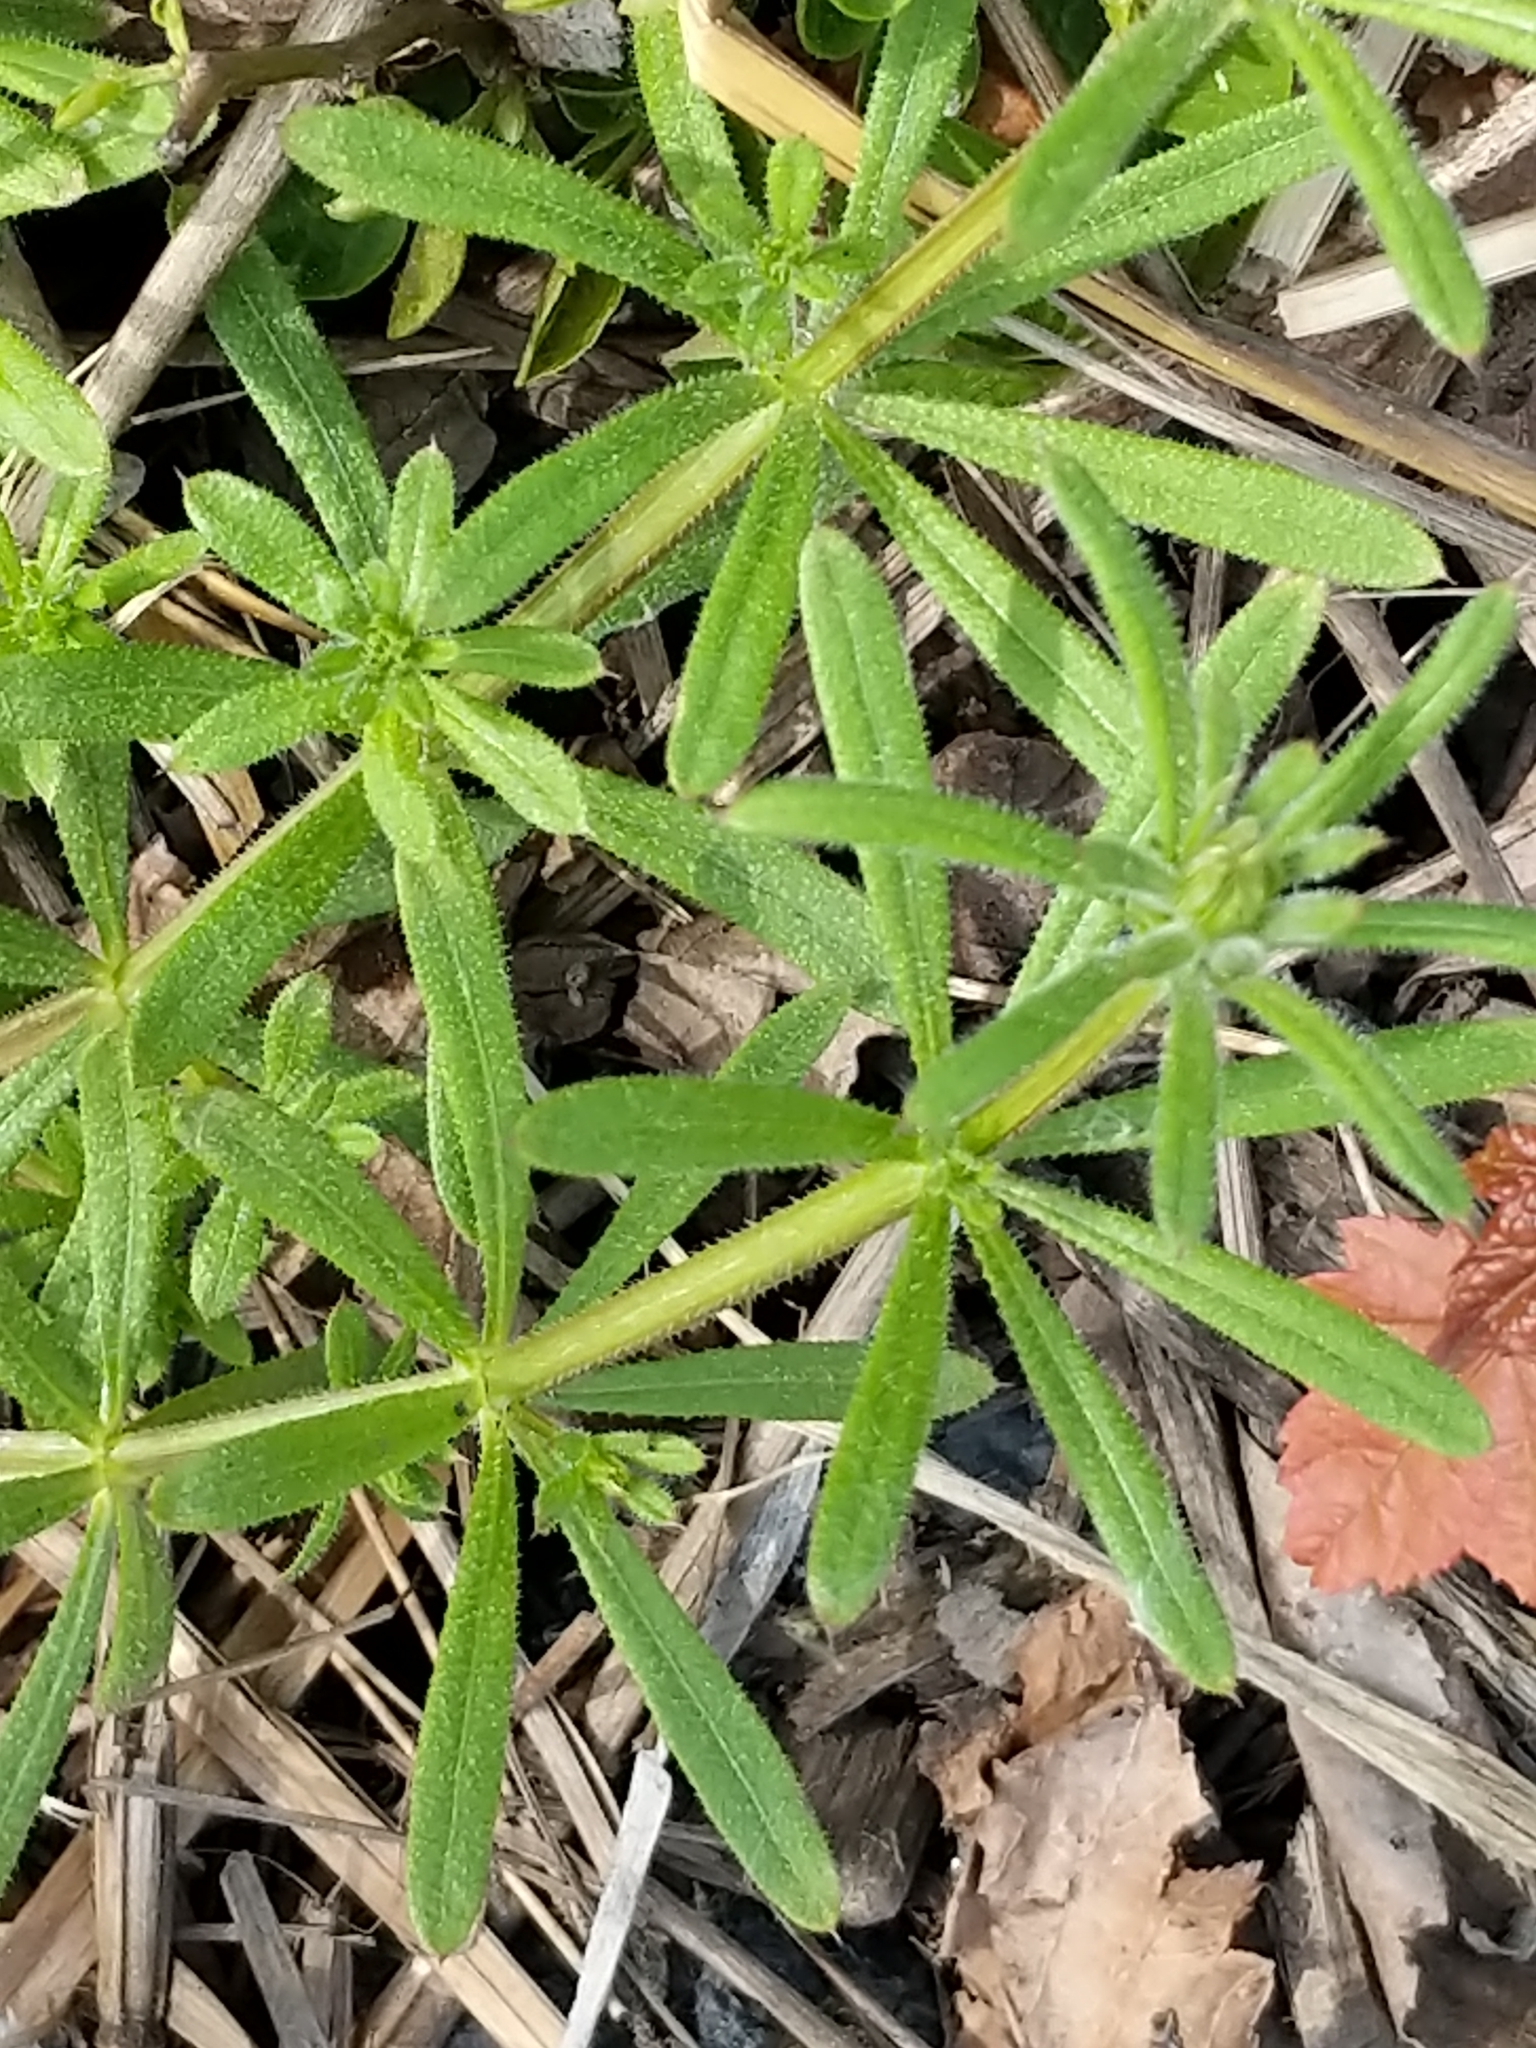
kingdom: Plantae
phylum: Tracheophyta
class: Magnoliopsida
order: Gentianales
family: Rubiaceae
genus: Galium
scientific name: Galium aparine
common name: Cleavers
